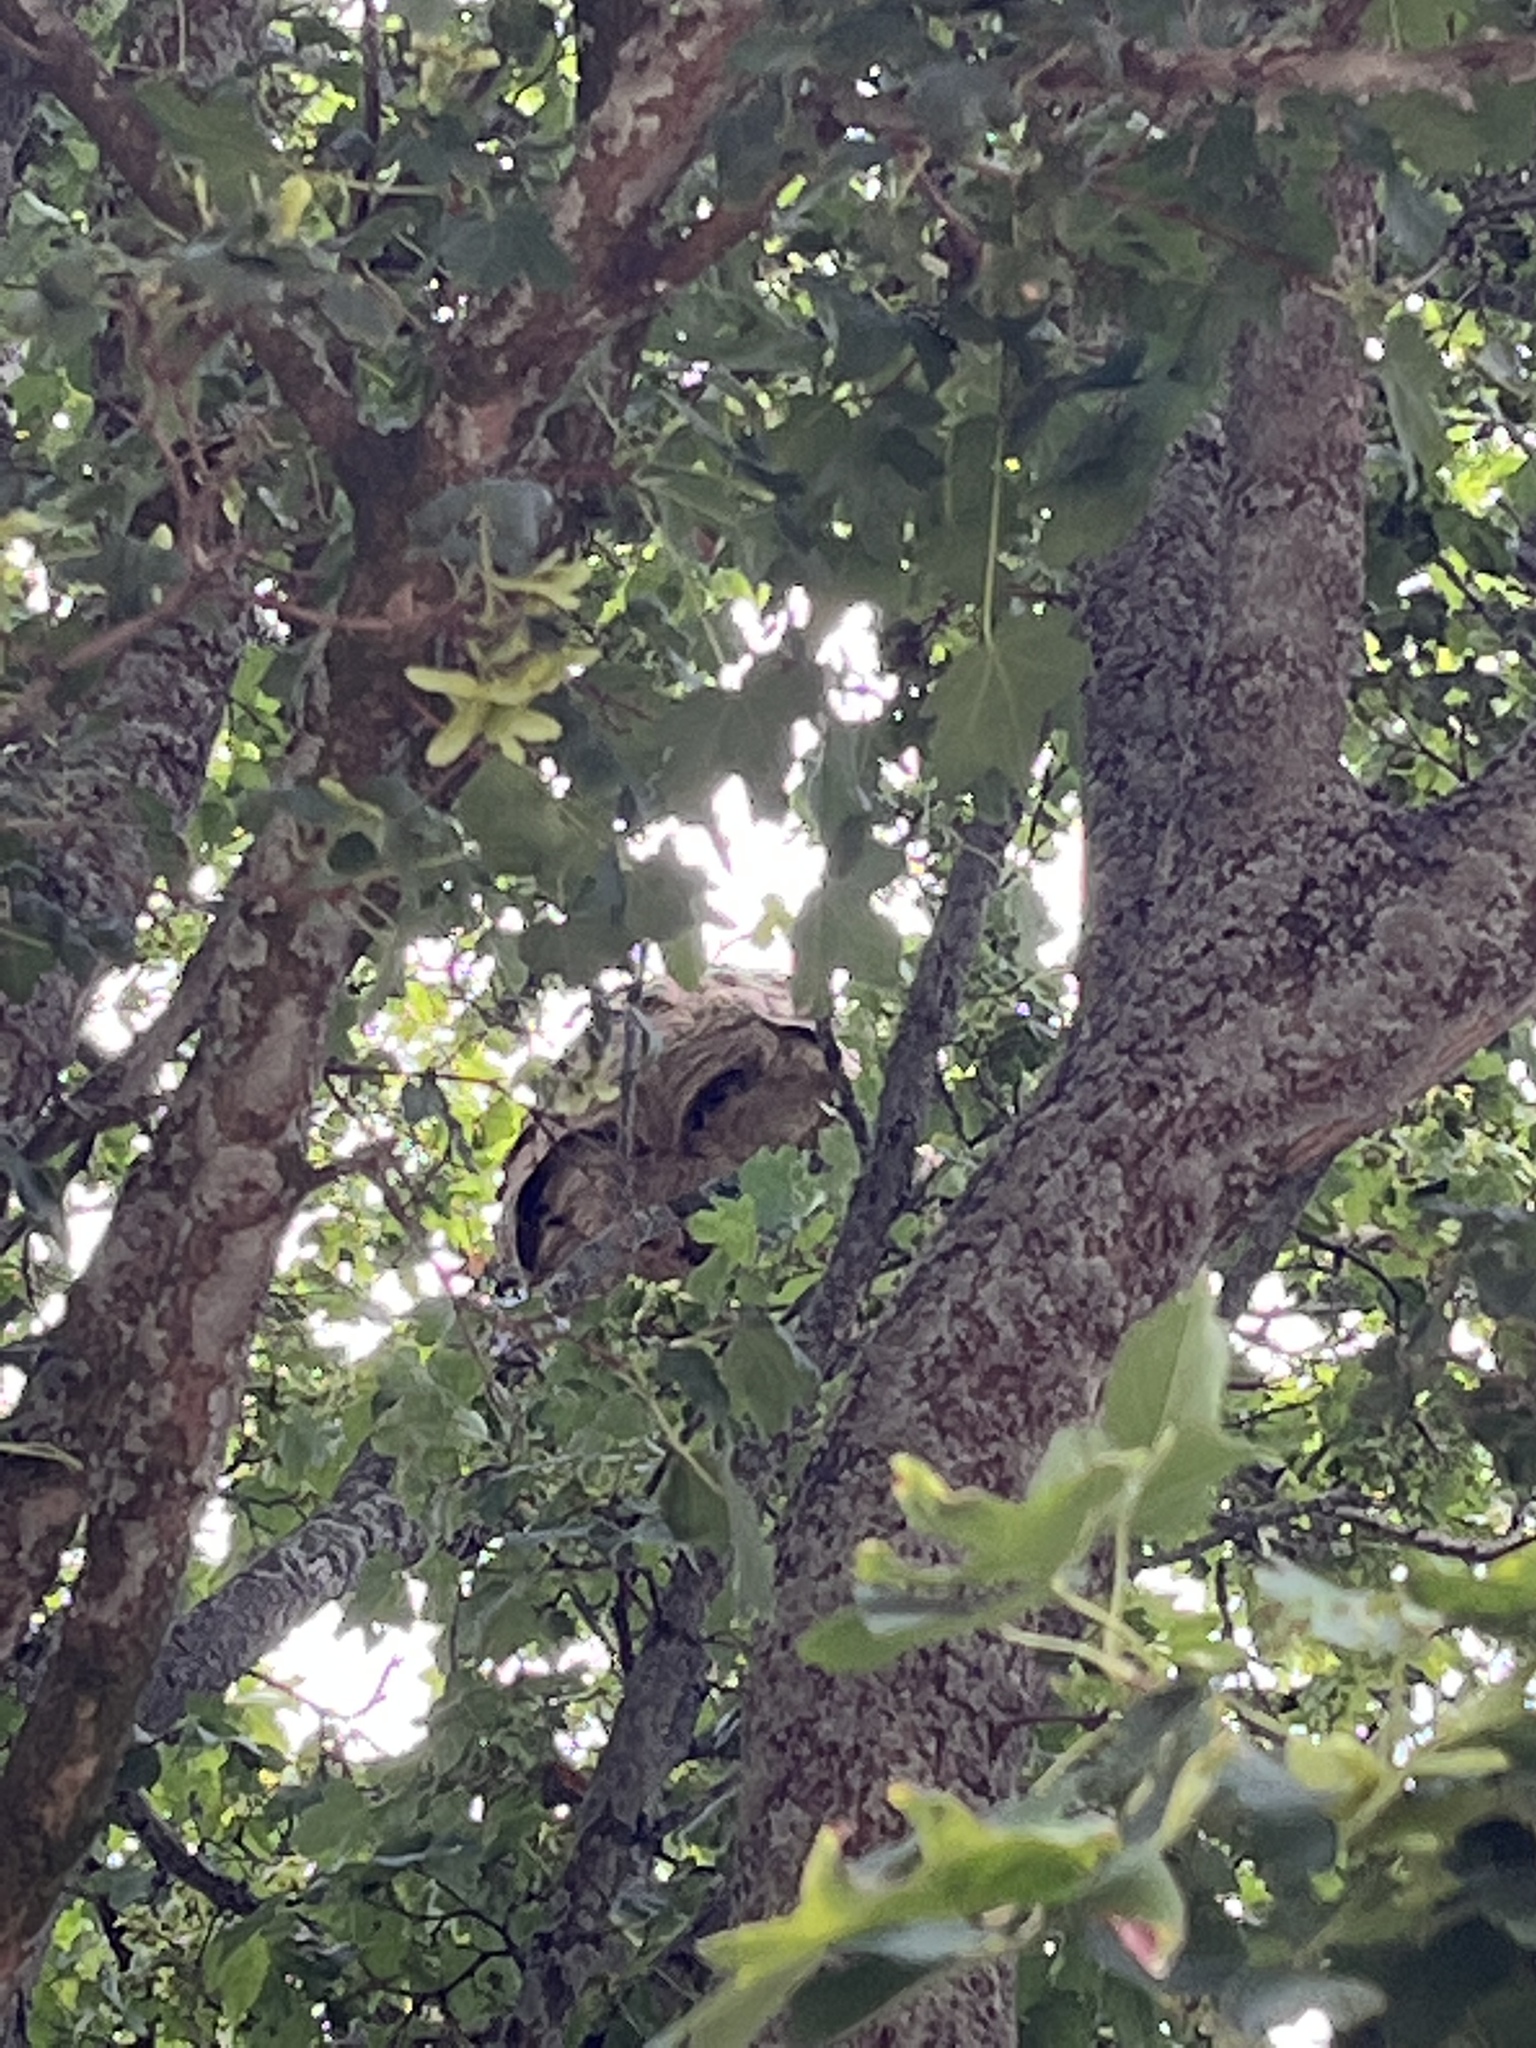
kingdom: Animalia
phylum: Arthropoda
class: Insecta
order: Hymenoptera
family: Vespidae
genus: Vespa
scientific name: Vespa velutina
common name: Asian hornet
